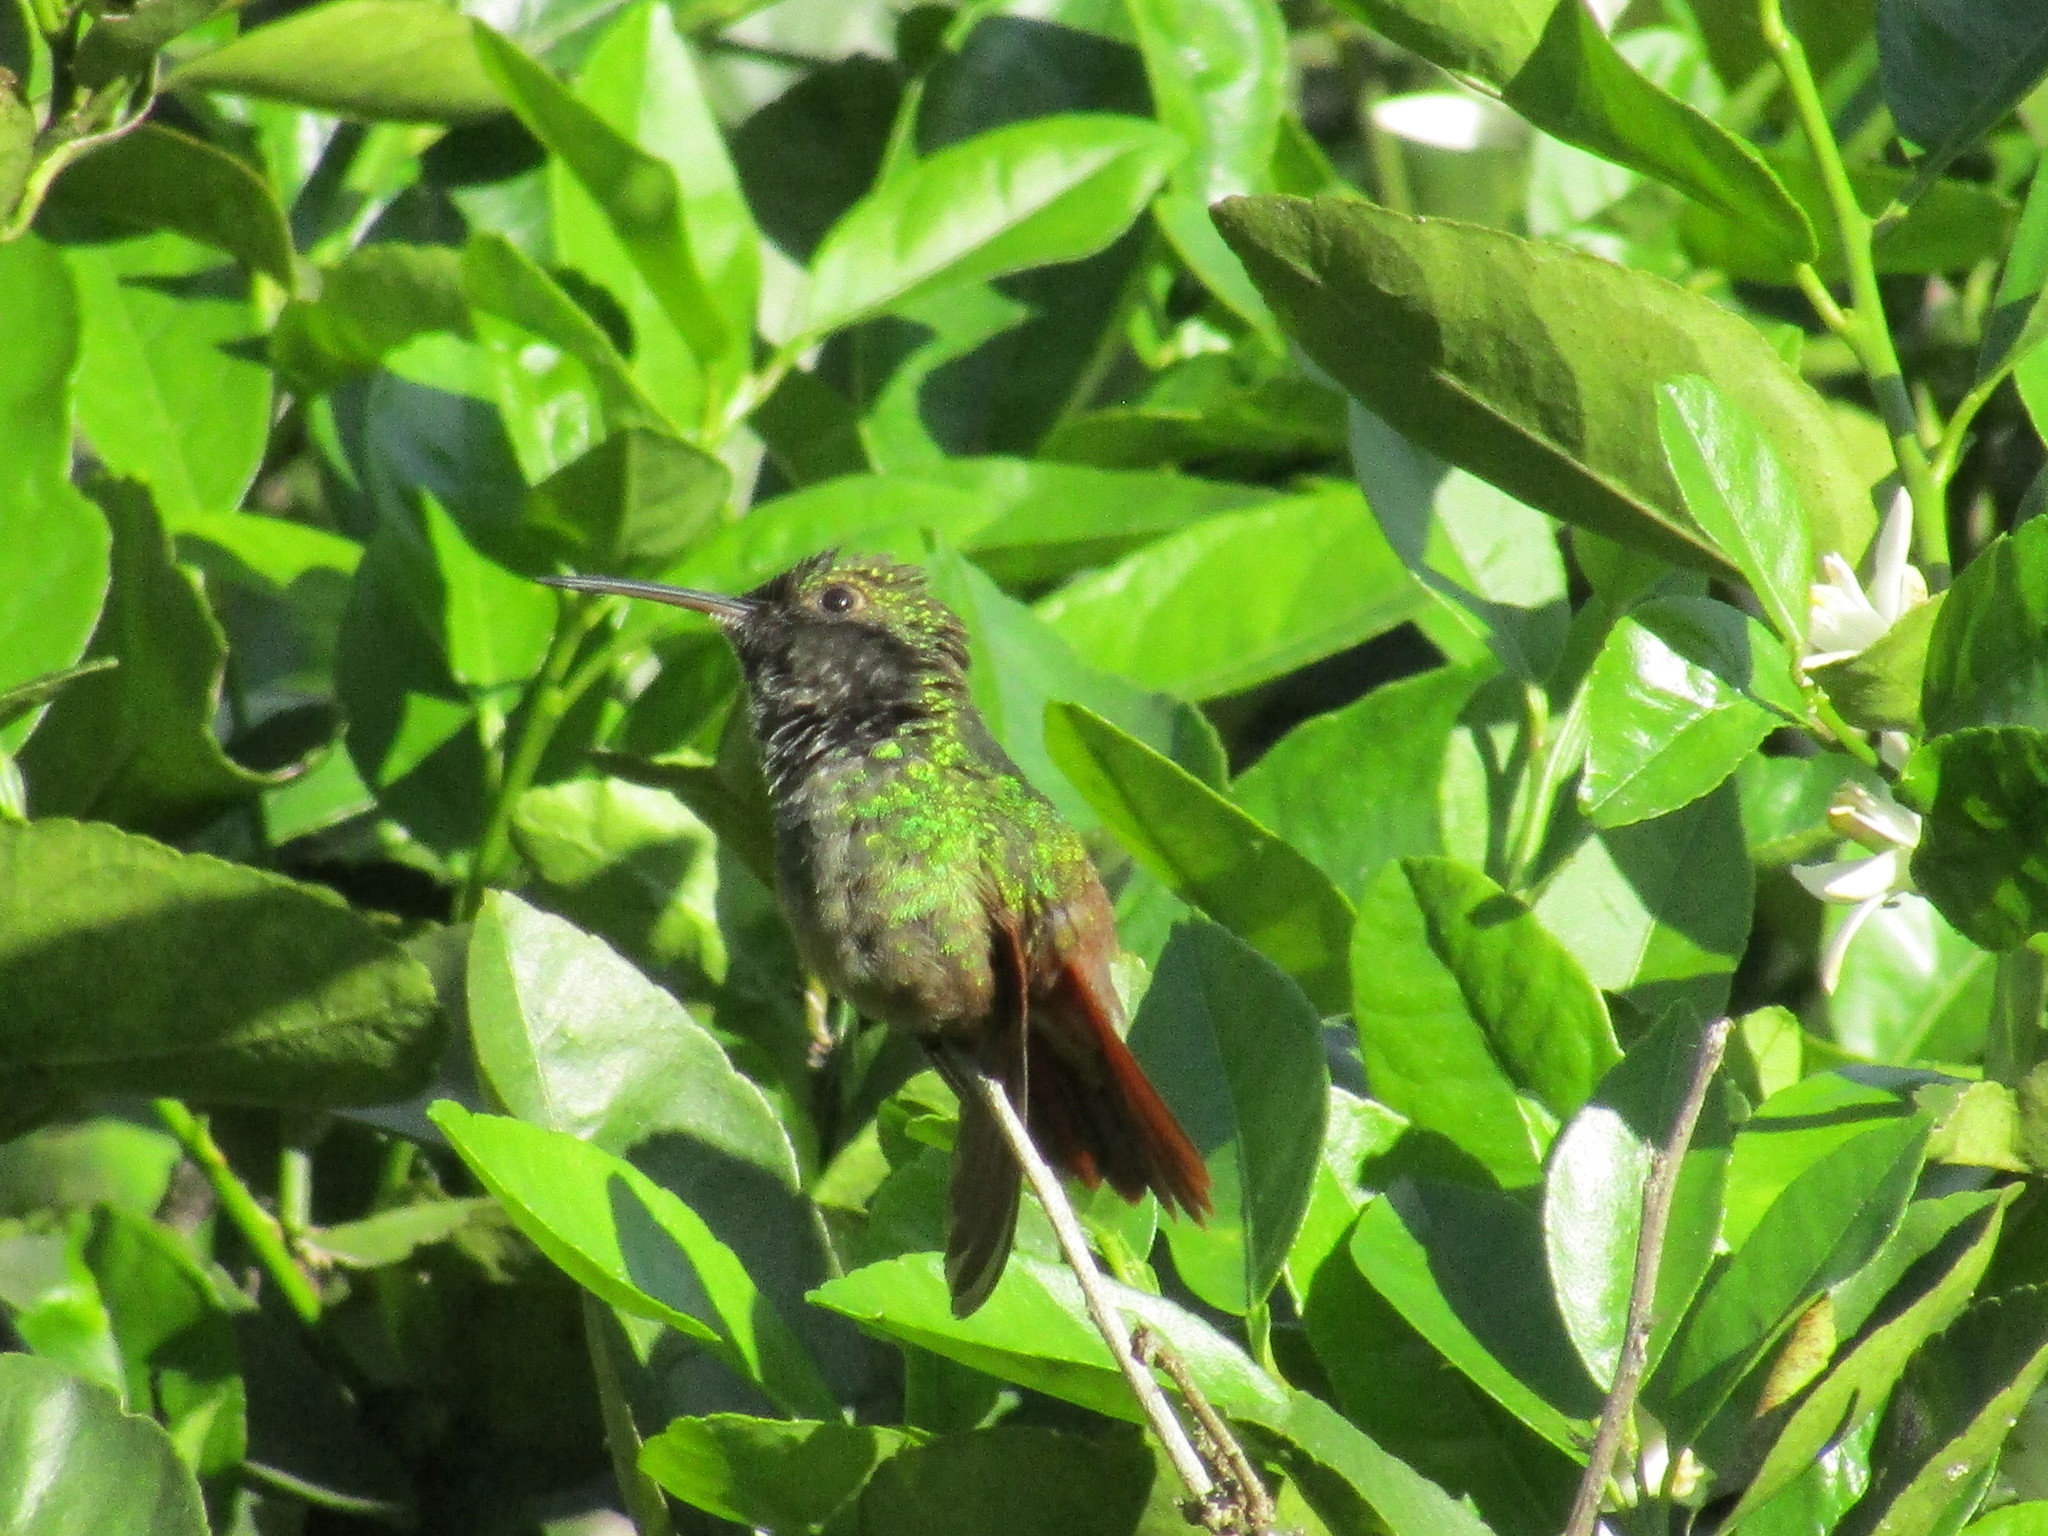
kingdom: Animalia
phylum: Chordata
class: Aves
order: Apodiformes
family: Trochilidae
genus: Saucerottia
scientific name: Saucerottia beryllina
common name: Berylline hummingbird
